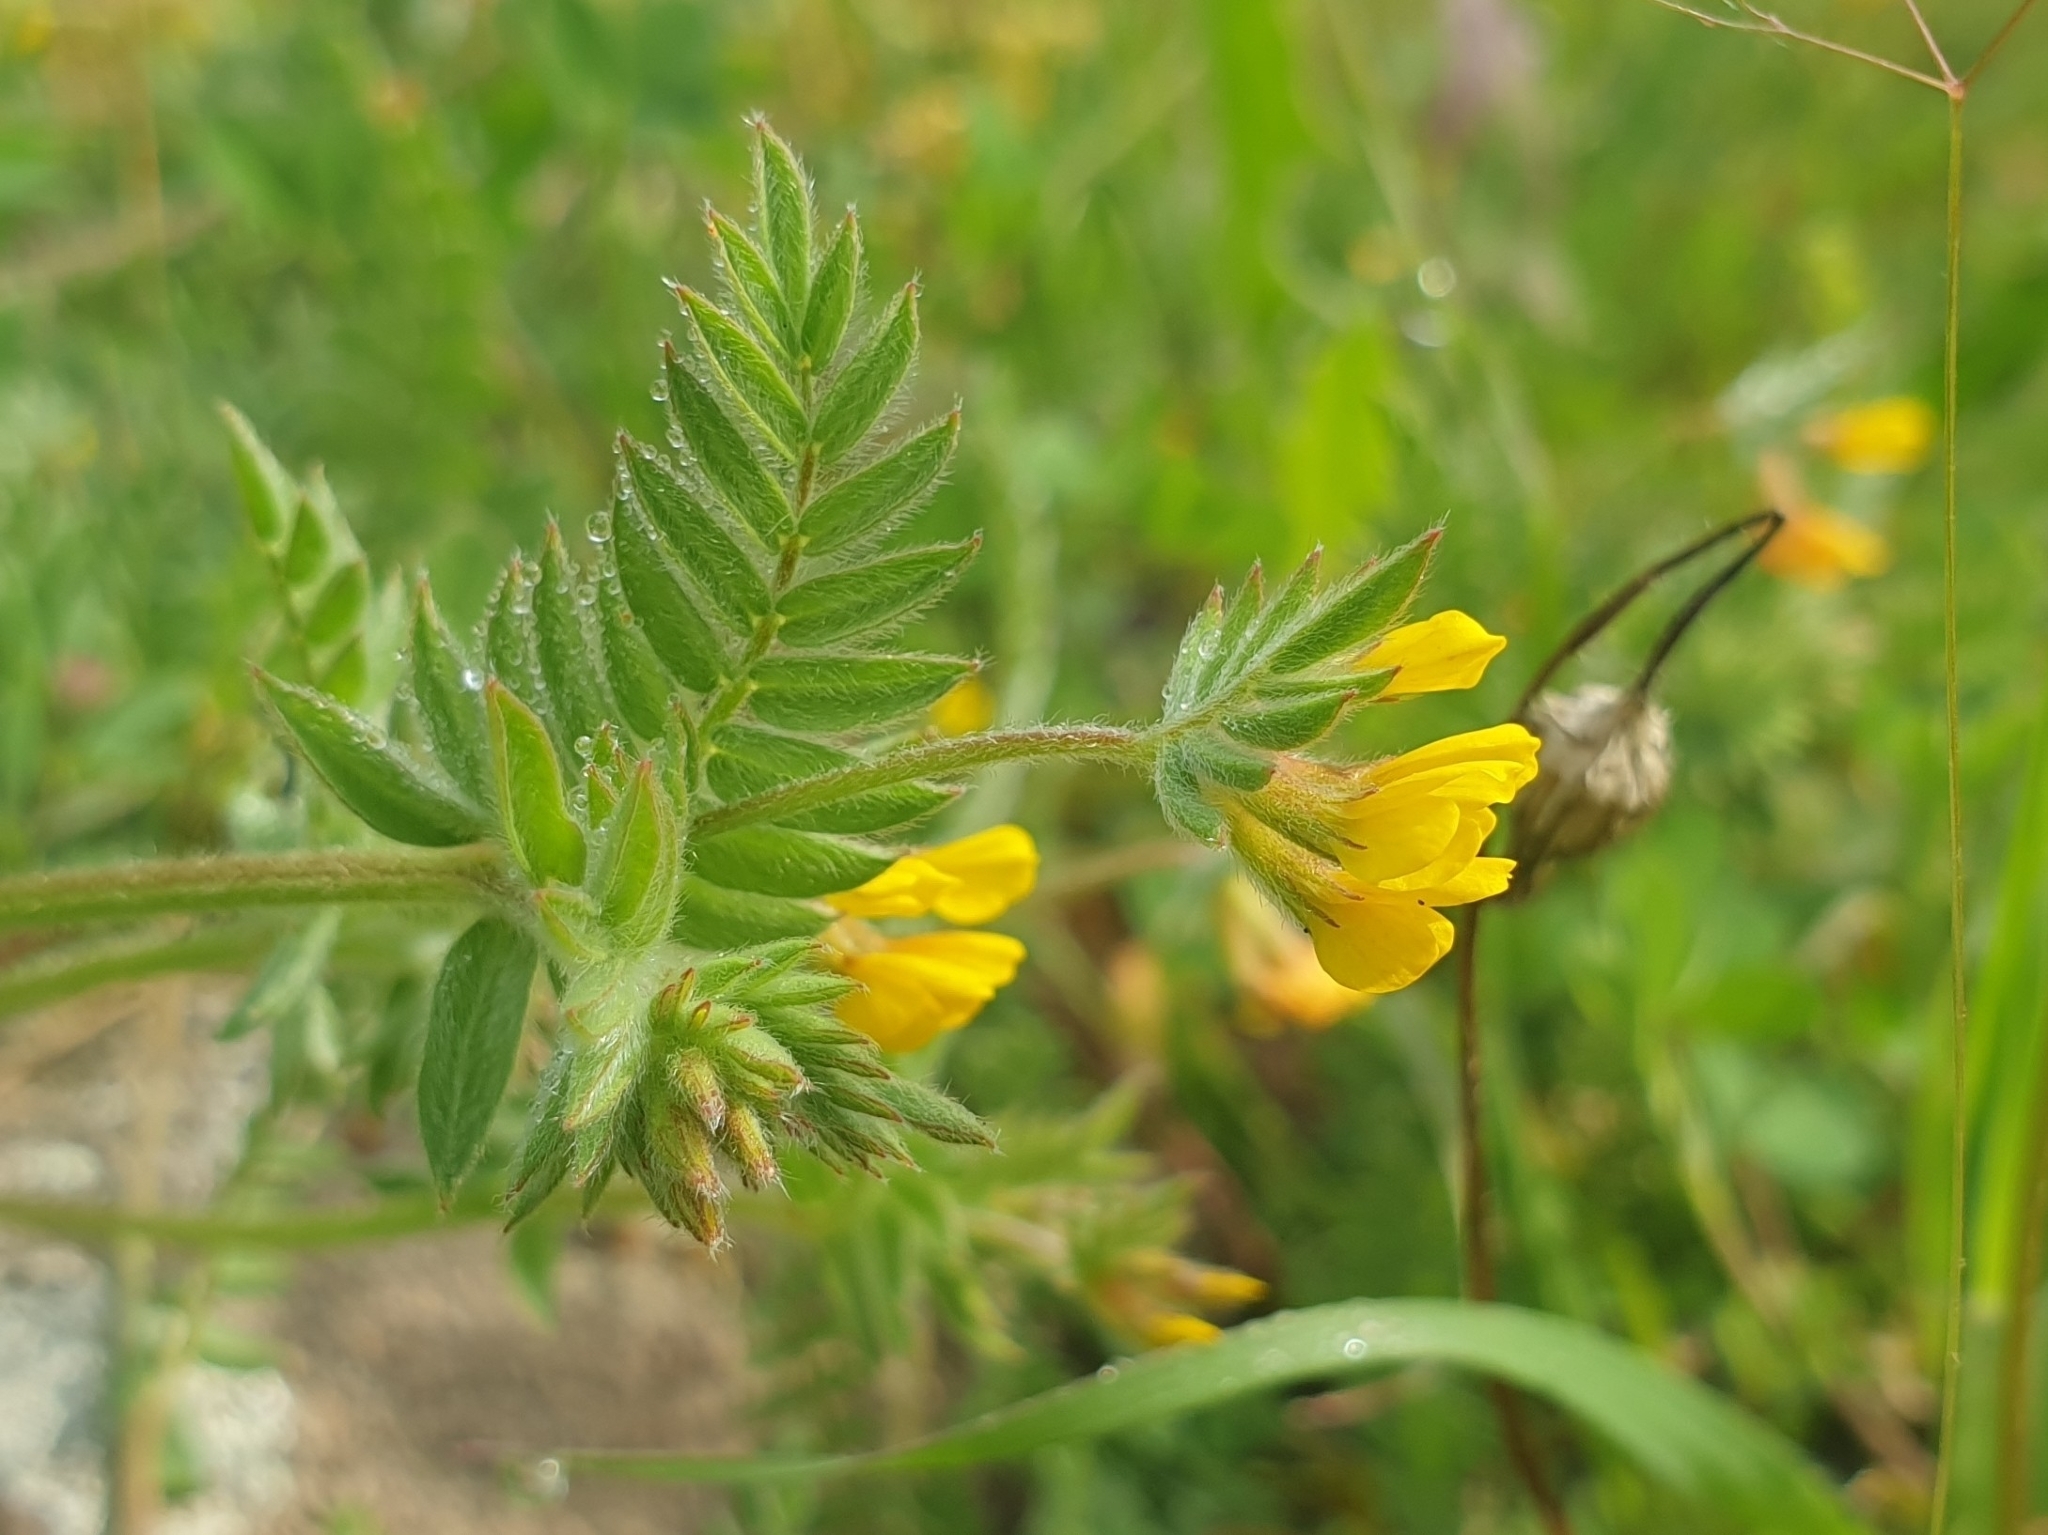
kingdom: Plantae
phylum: Tracheophyta
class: Magnoliopsida
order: Fabales
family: Fabaceae
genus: Ornithopus
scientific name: Ornithopus compressus
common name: Yellow serradella
